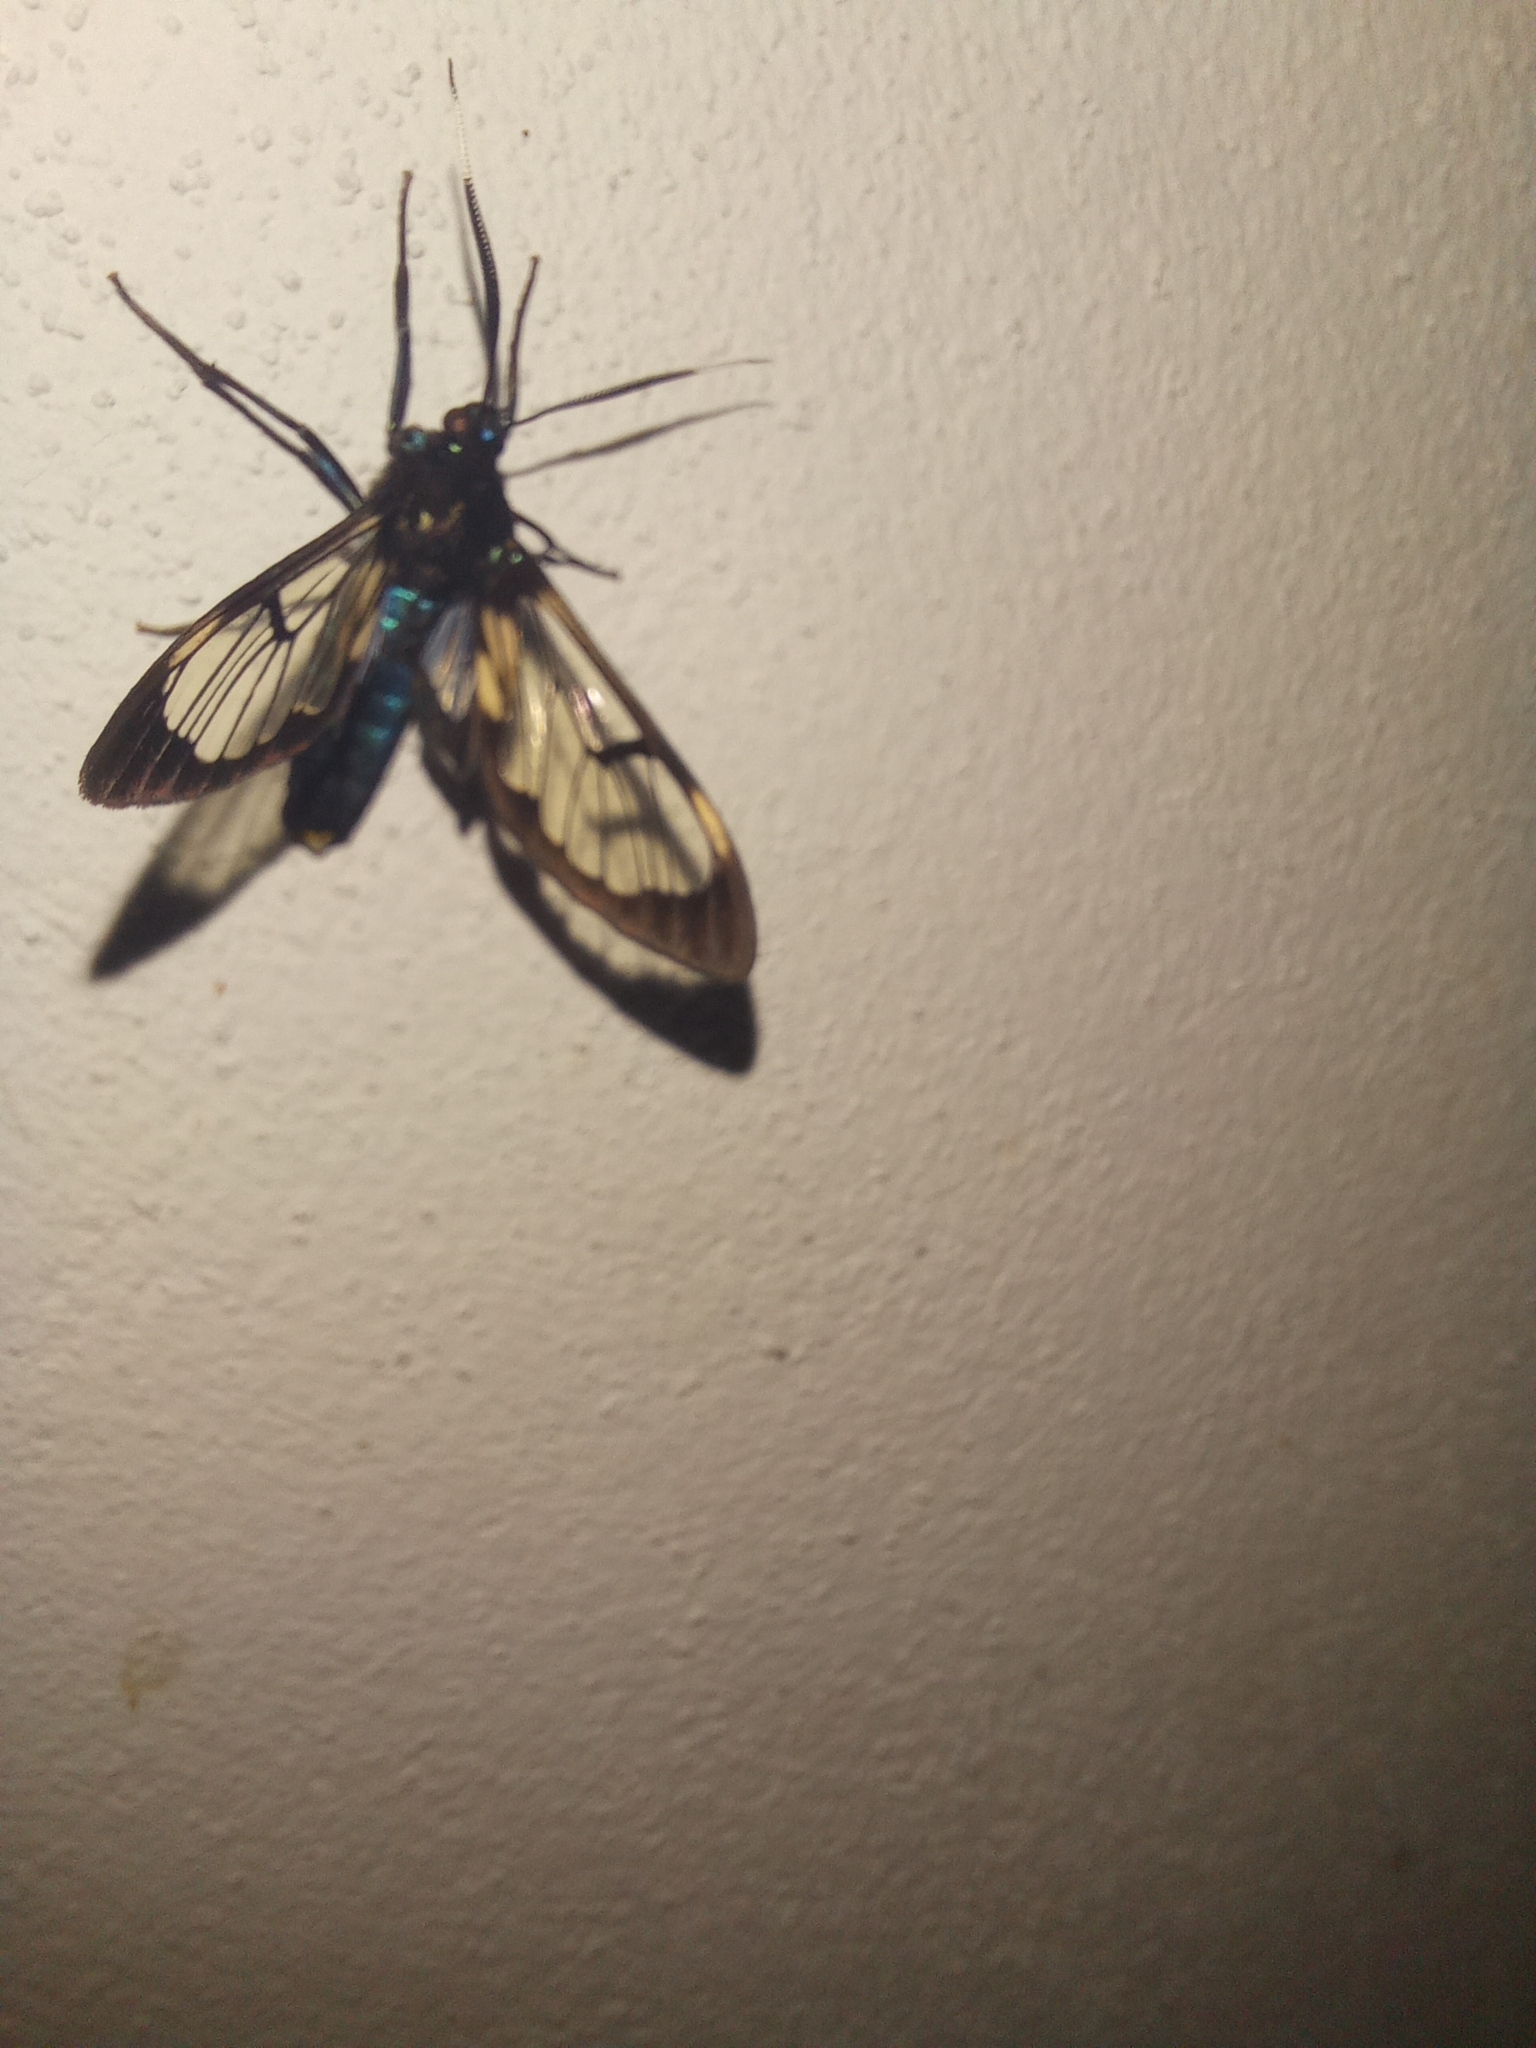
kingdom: Animalia
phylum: Arthropoda
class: Insecta
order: Lepidoptera
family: Erebidae
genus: Neotrichura
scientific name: Neotrichura nigripes
